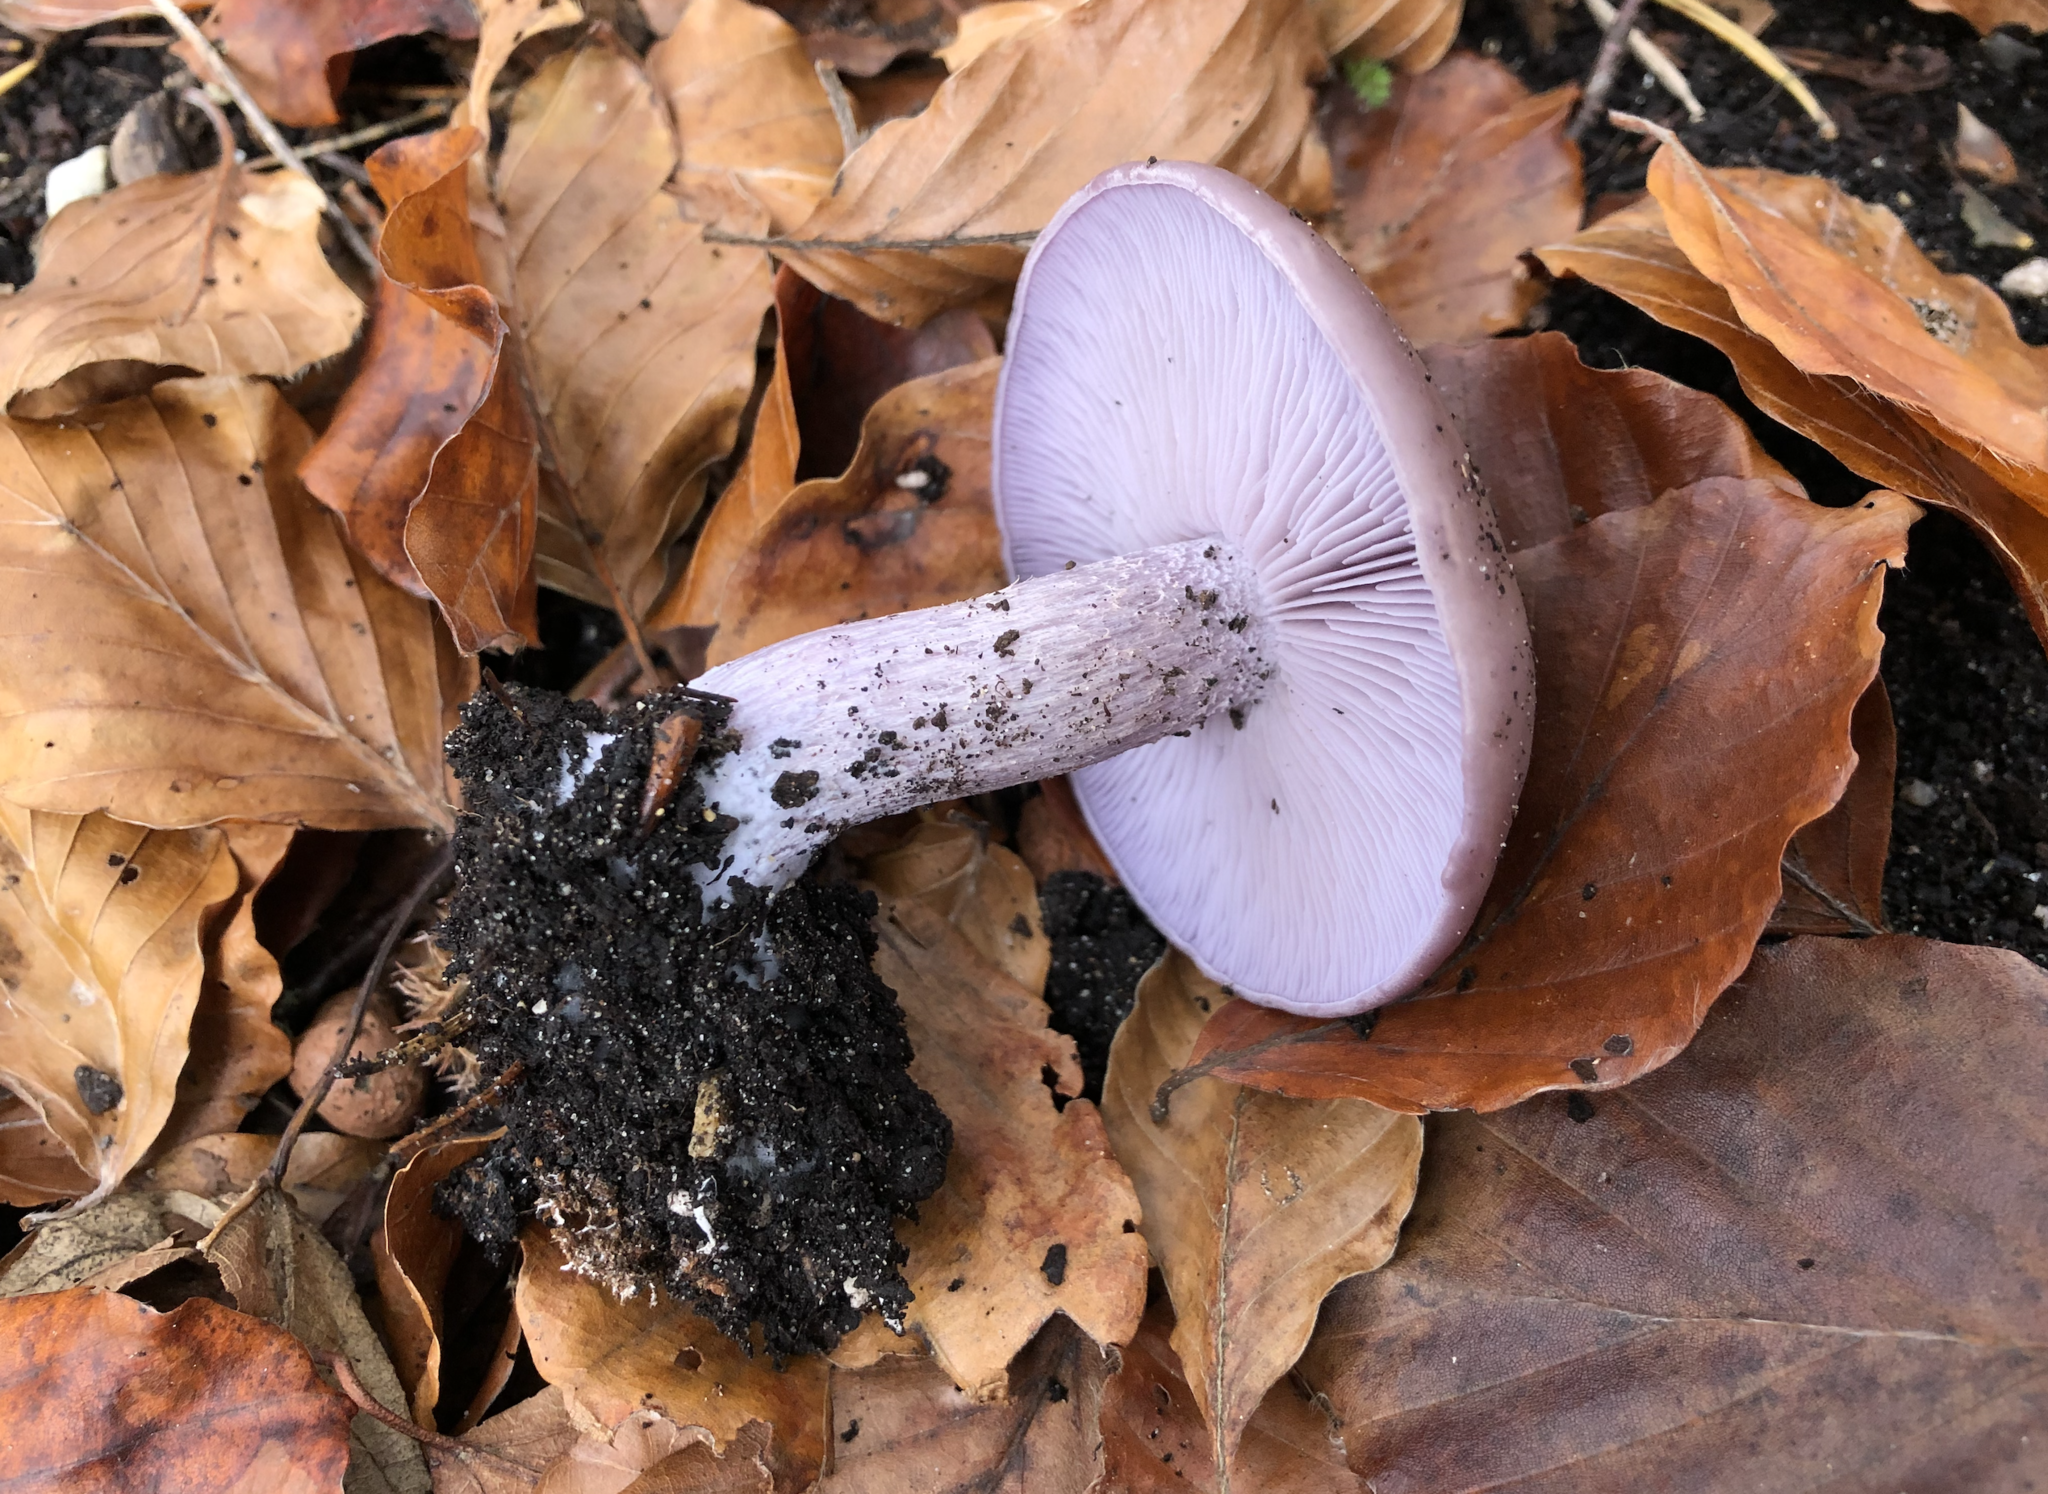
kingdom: Fungi
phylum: Basidiomycota
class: Agaricomycetes
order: Agaricales
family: Tricholomataceae
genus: Collybia
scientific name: Collybia
